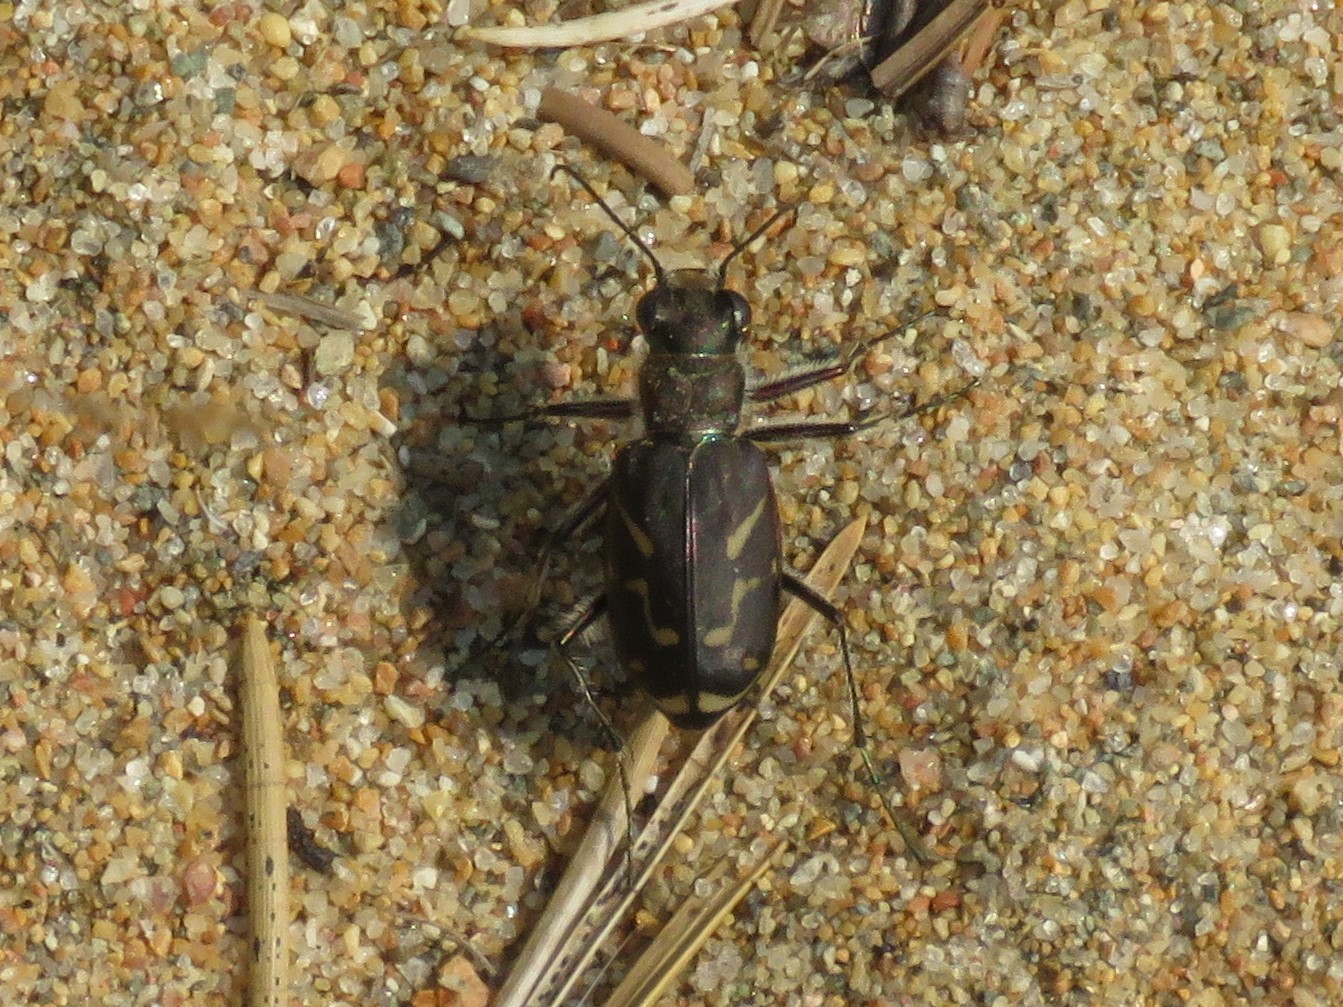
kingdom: Animalia
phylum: Arthropoda
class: Insecta
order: Coleoptera
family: Carabidae
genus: Cicindela
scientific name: Cicindela tranquebarica
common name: Oblique-lined tiger beetle
